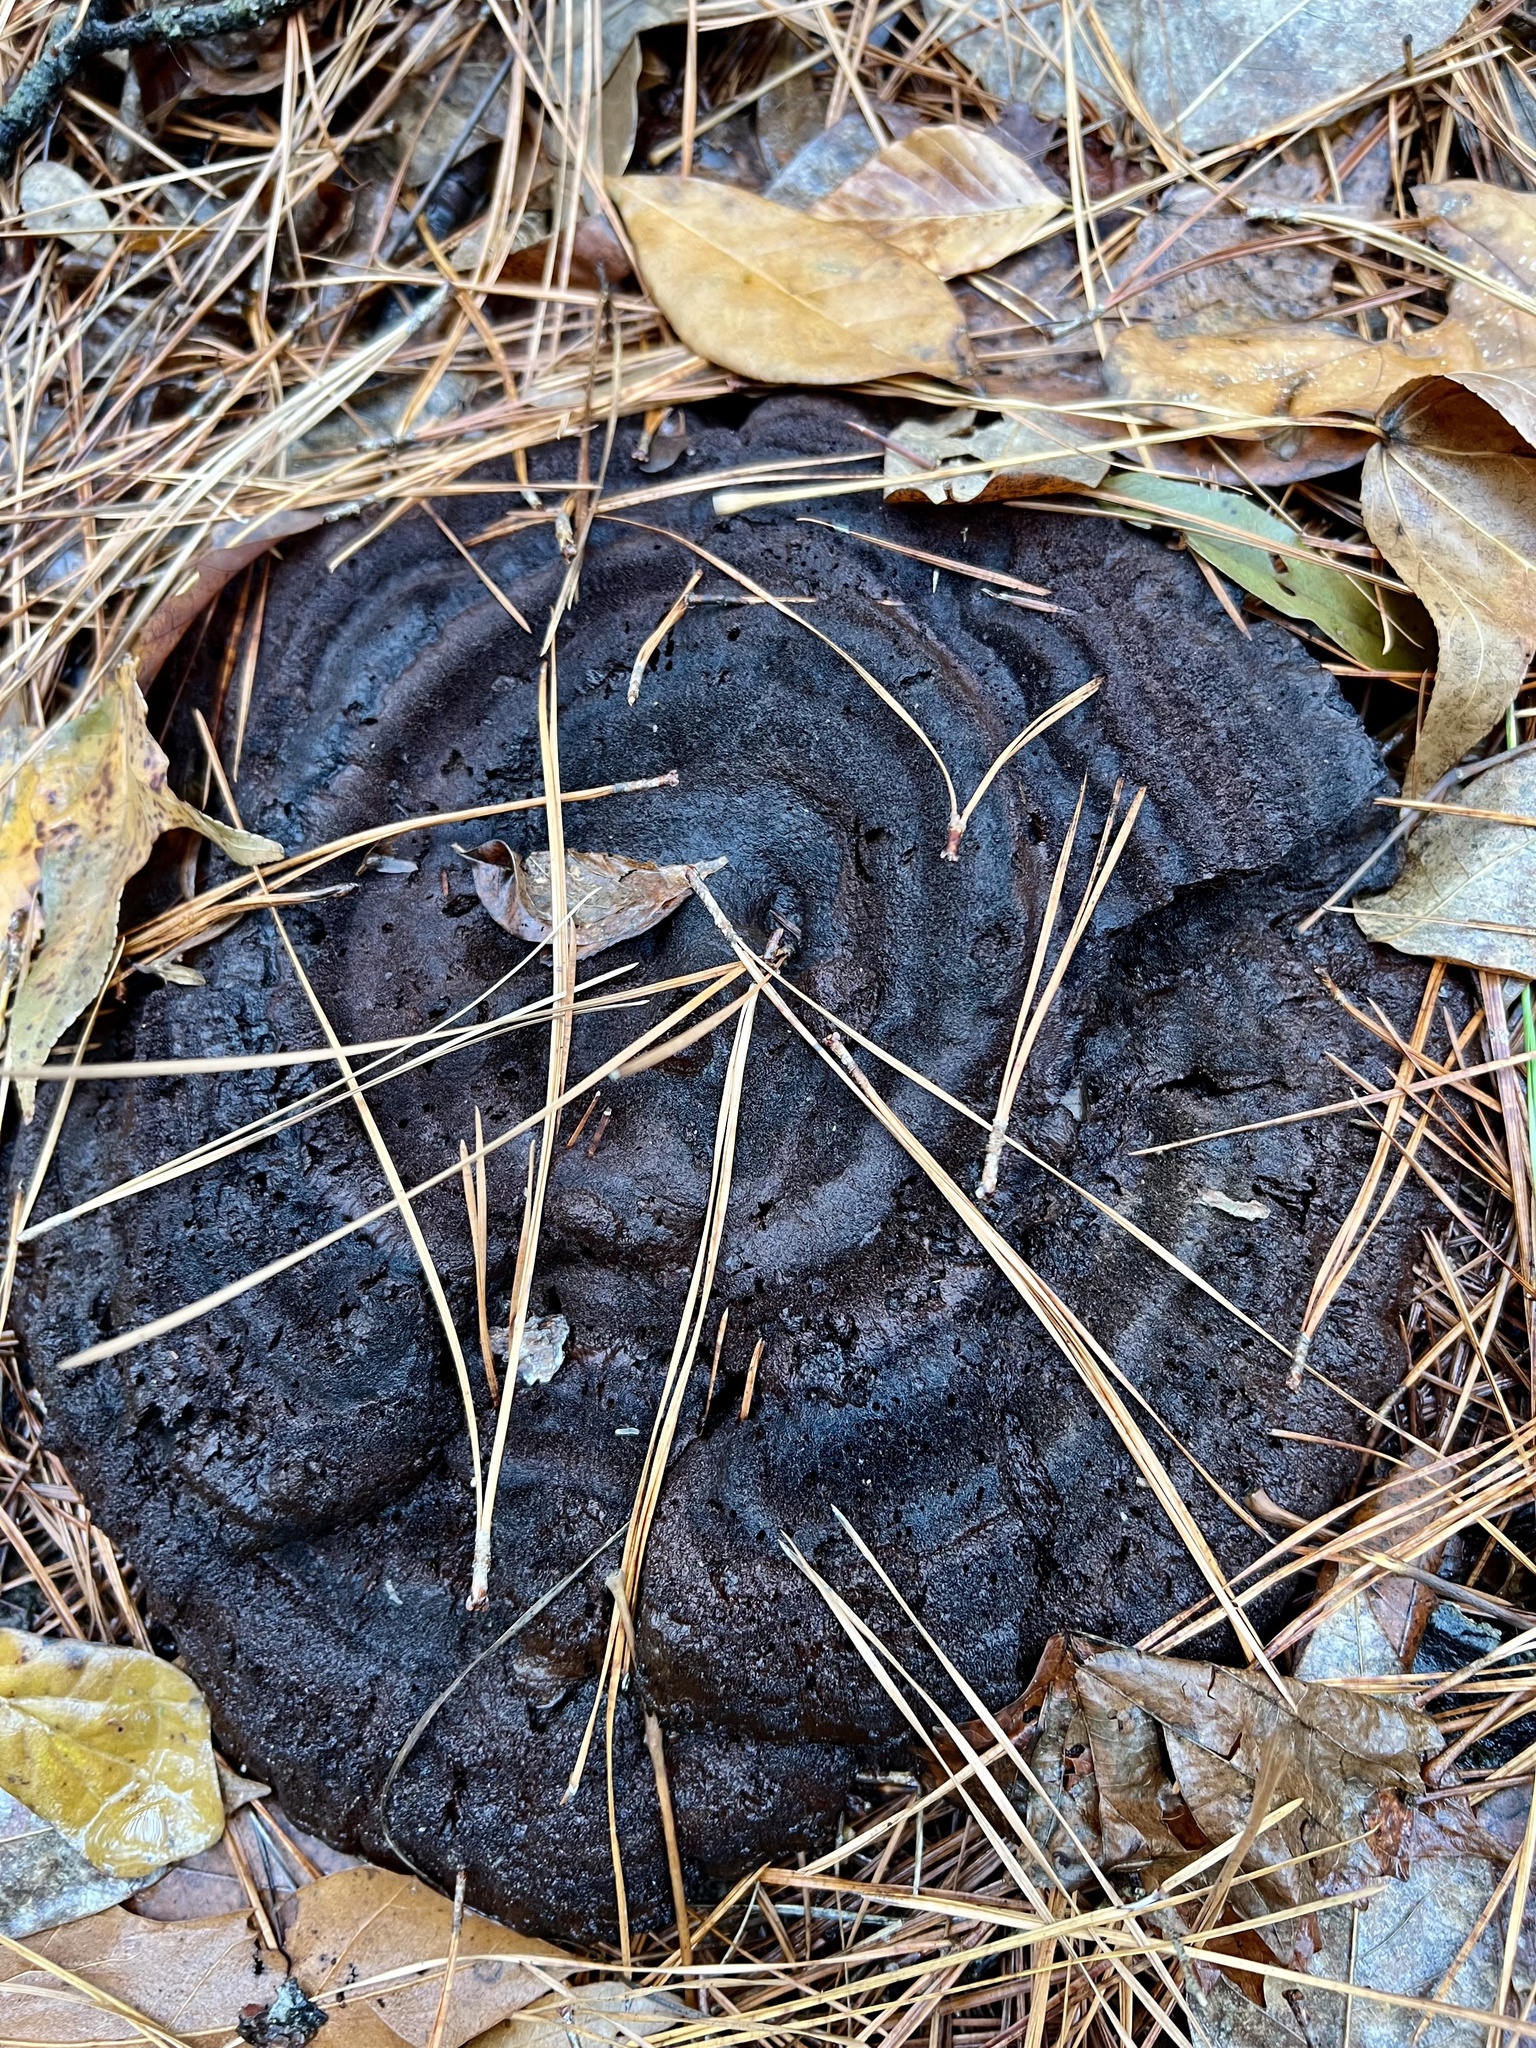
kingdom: Fungi
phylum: Basidiomycota
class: Agaricomycetes
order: Polyporales
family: Laetiporaceae
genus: Phaeolus
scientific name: Phaeolus schweinitzii
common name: Dyer's mazegill
